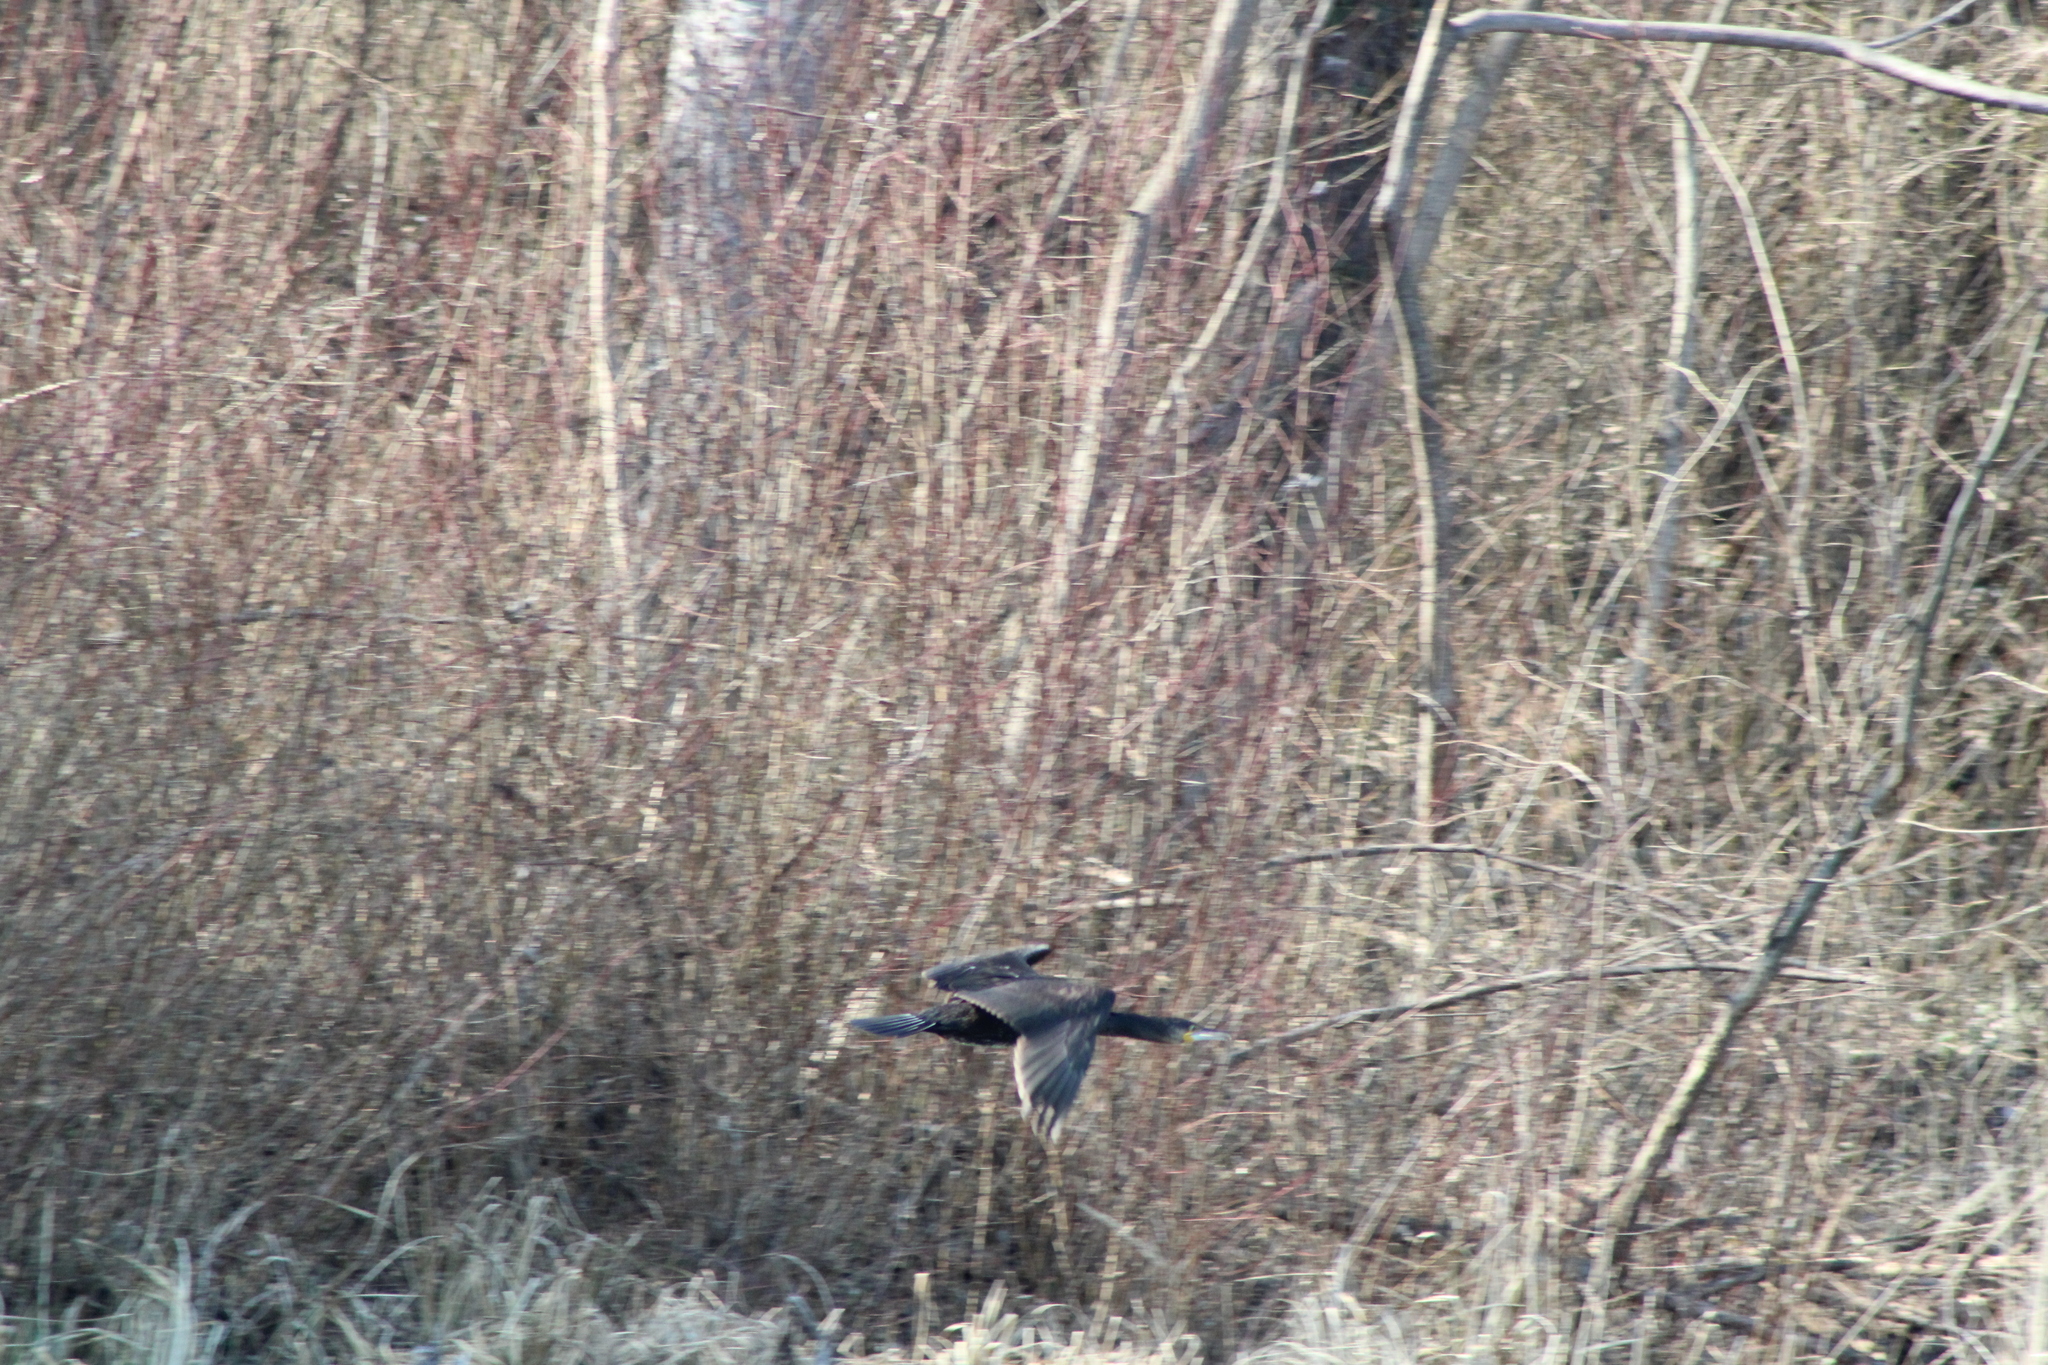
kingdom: Animalia
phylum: Chordata
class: Aves
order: Suliformes
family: Phalacrocoracidae
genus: Phalacrocorax
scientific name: Phalacrocorax carbo
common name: Great cormorant
